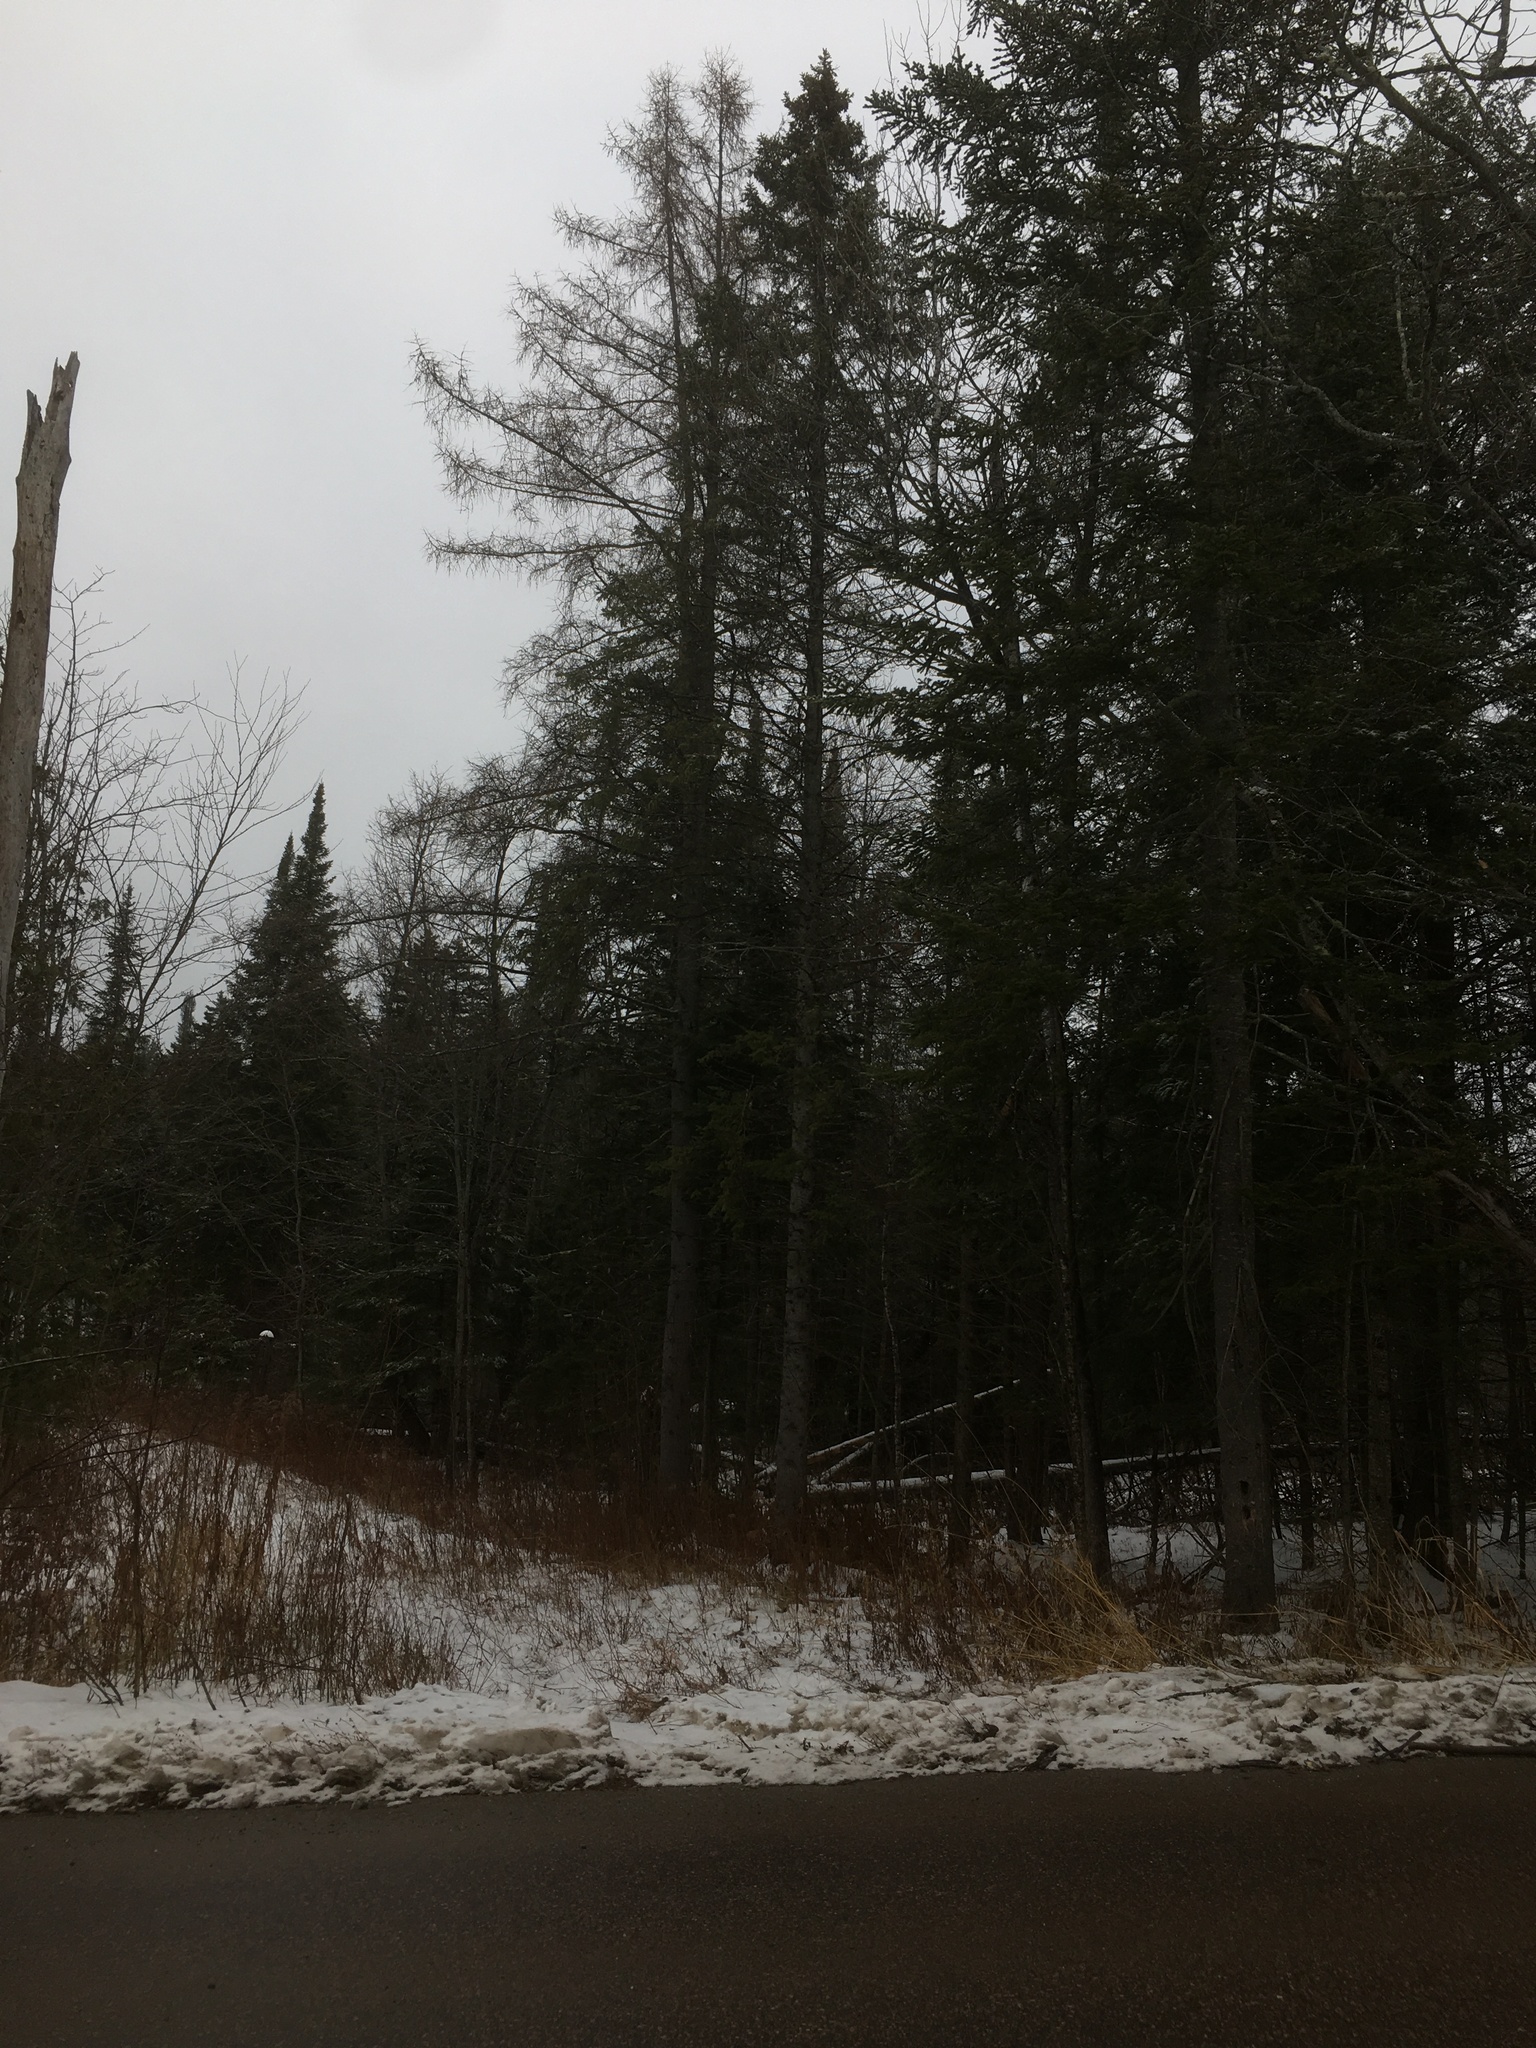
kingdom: Plantae
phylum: Tracheophyta
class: Pinopsida
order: Pinales
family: Pinaceae
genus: Abies
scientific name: Abies balsamea
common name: Balsam fir
